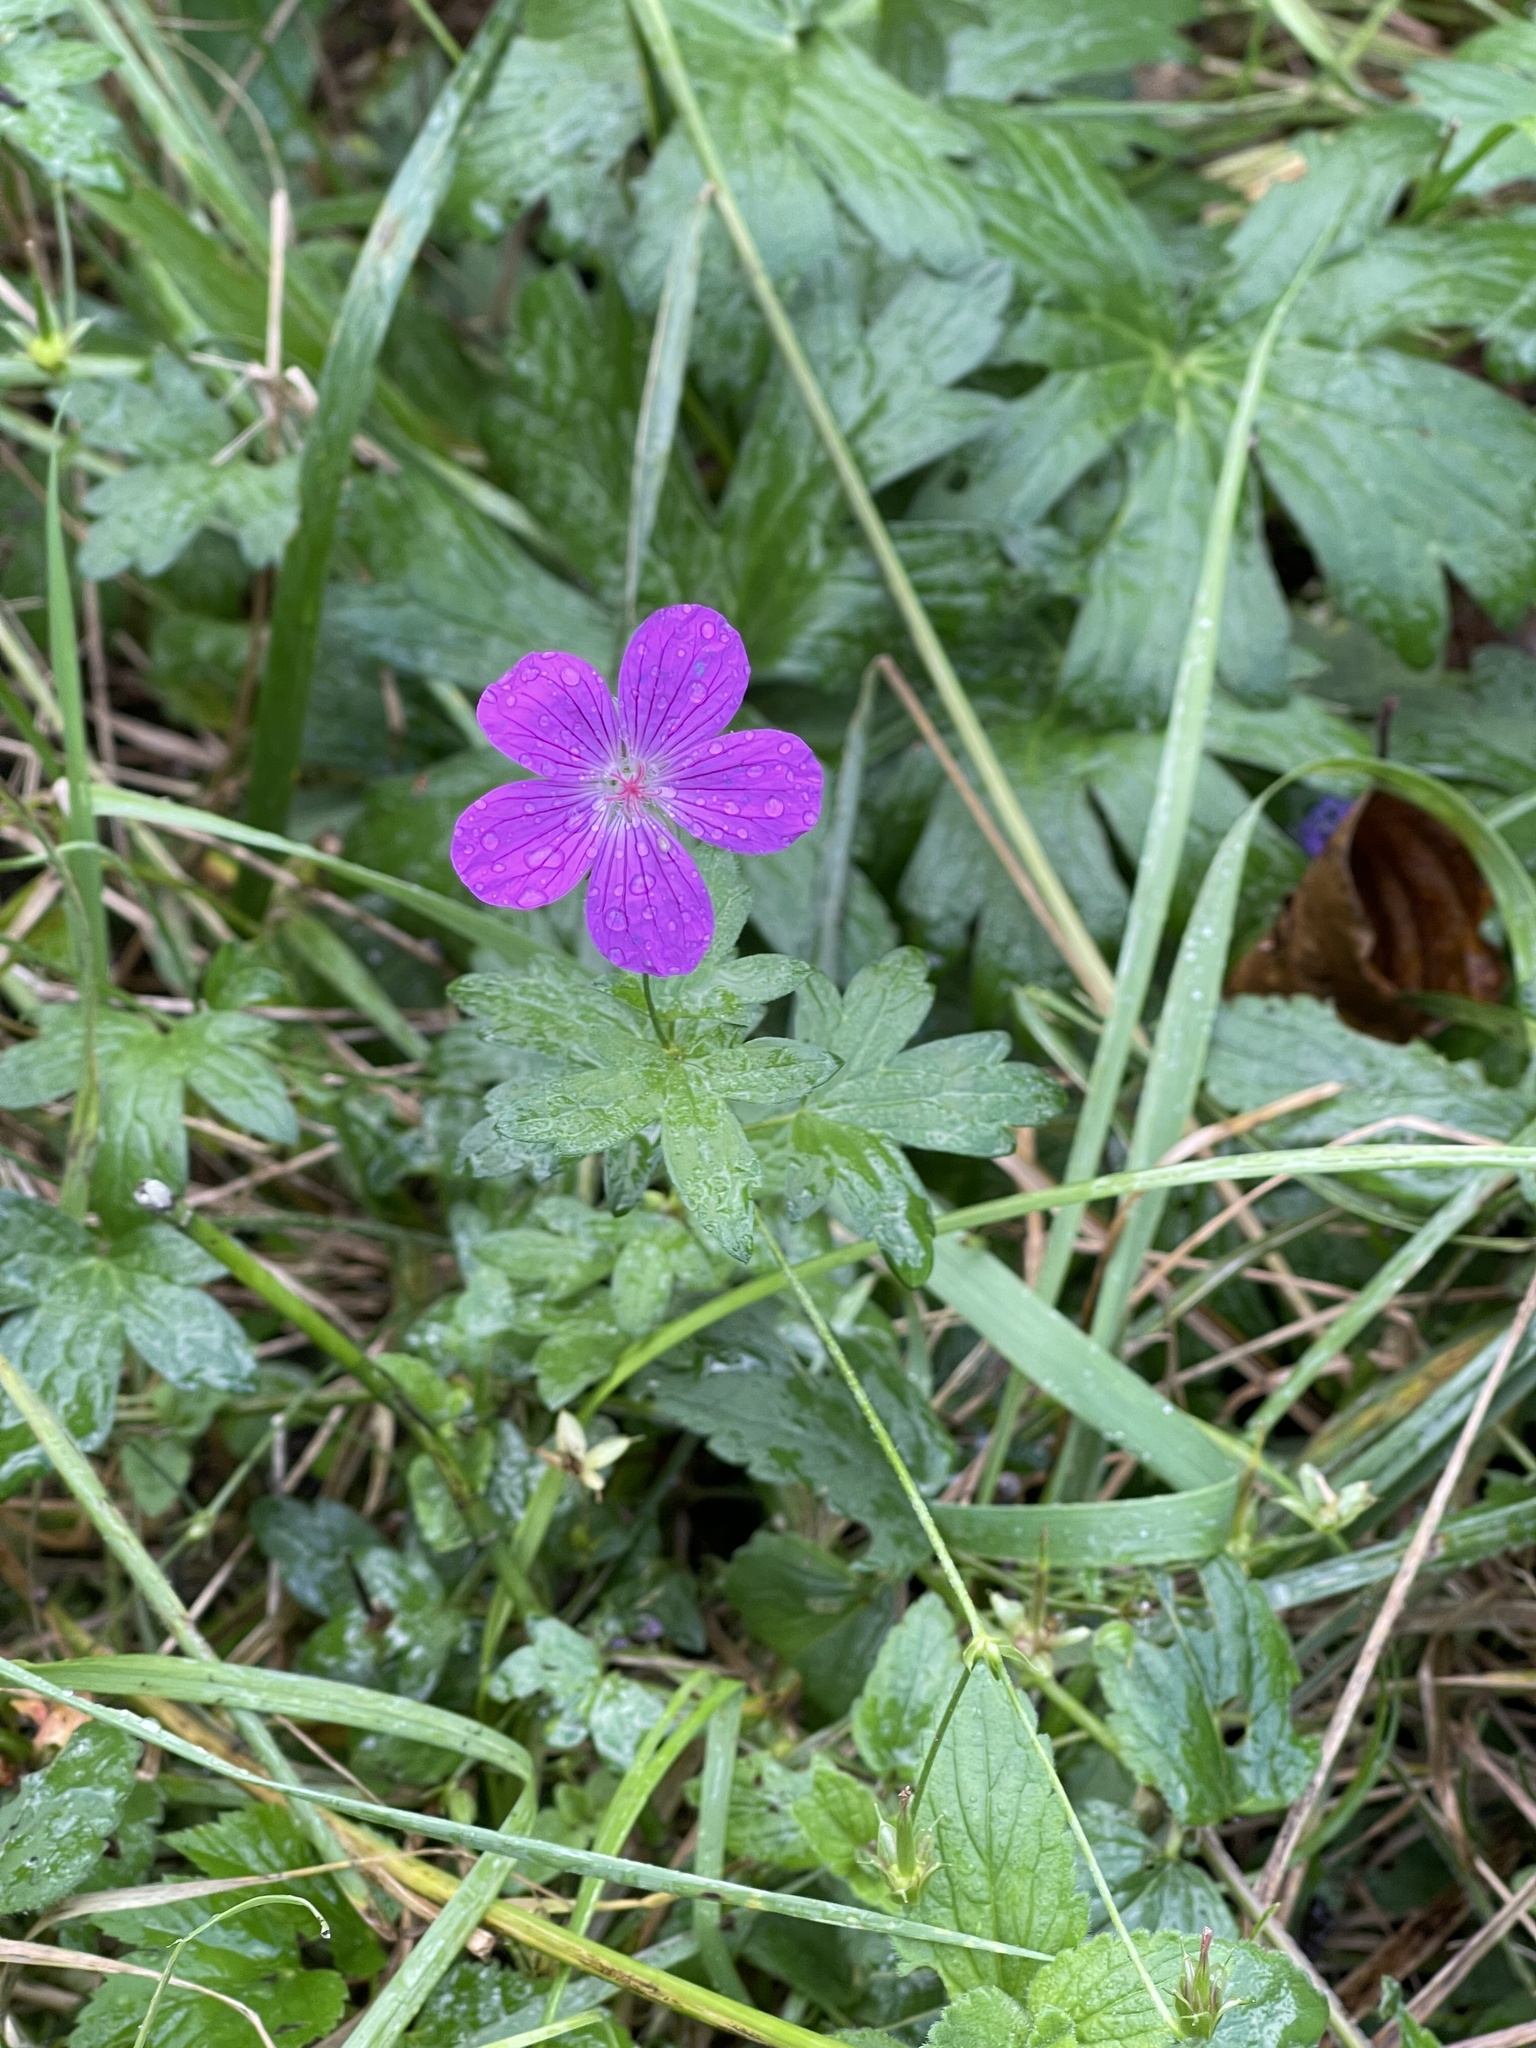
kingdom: Plantae
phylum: Tracheophyta
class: Magnoliopsida
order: Geraniales
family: Geraniaceae
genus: Geranium
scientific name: Geranium palustre
